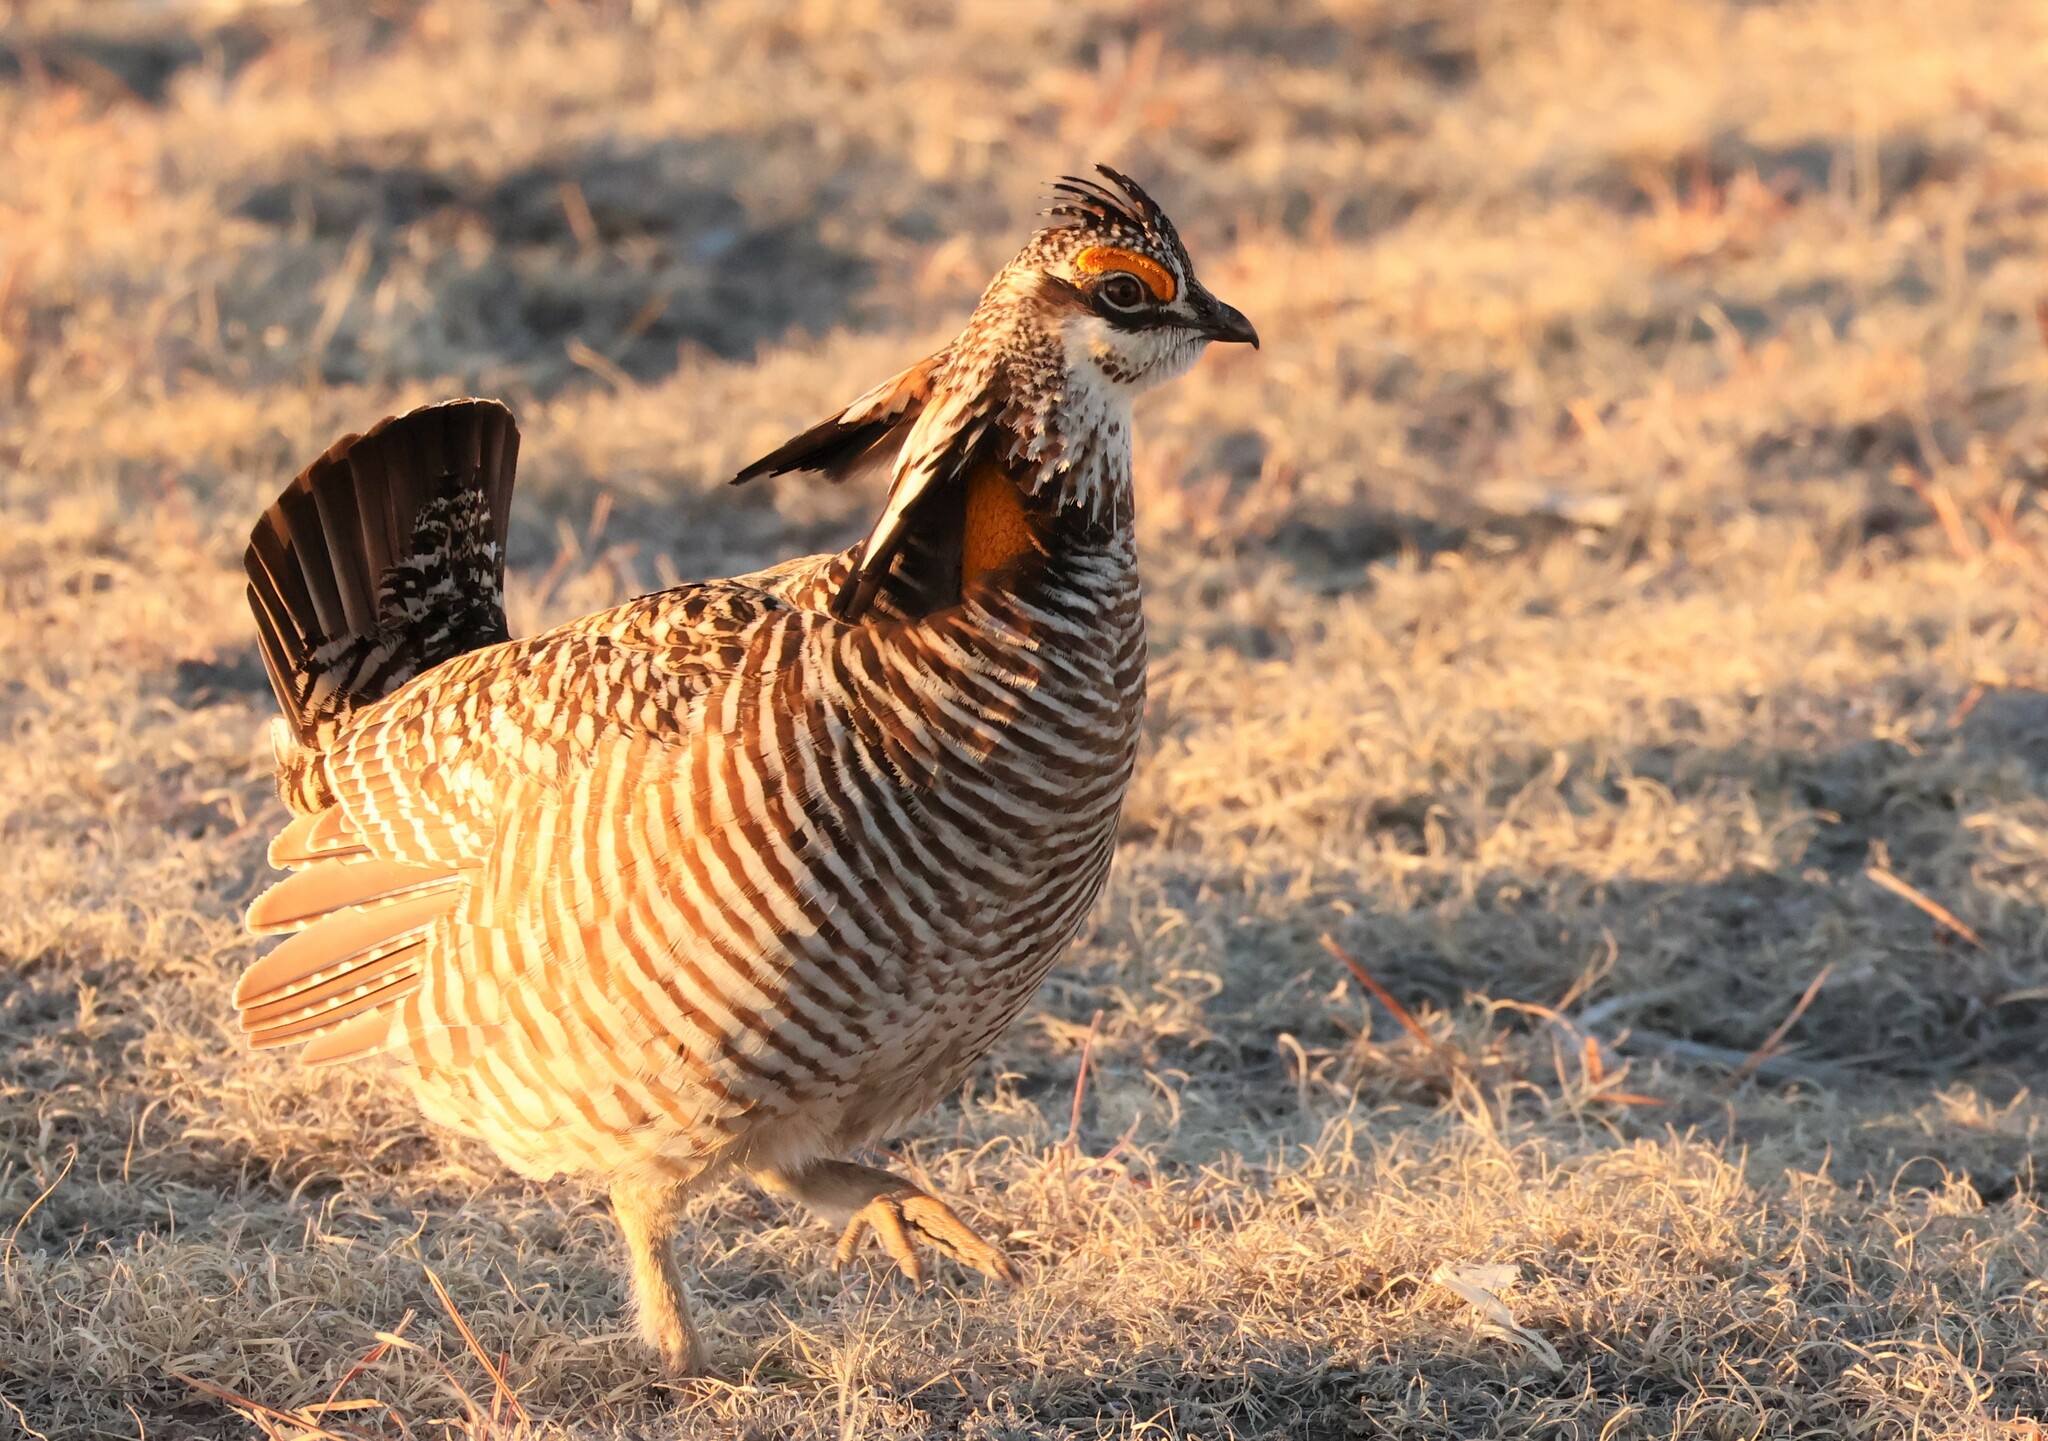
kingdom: Animalia
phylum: Chordata
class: Aves
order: Galliformes
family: Phasianidae
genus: Tympanuchus
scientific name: Tympanuchus cupido
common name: Greater prairie chicken
